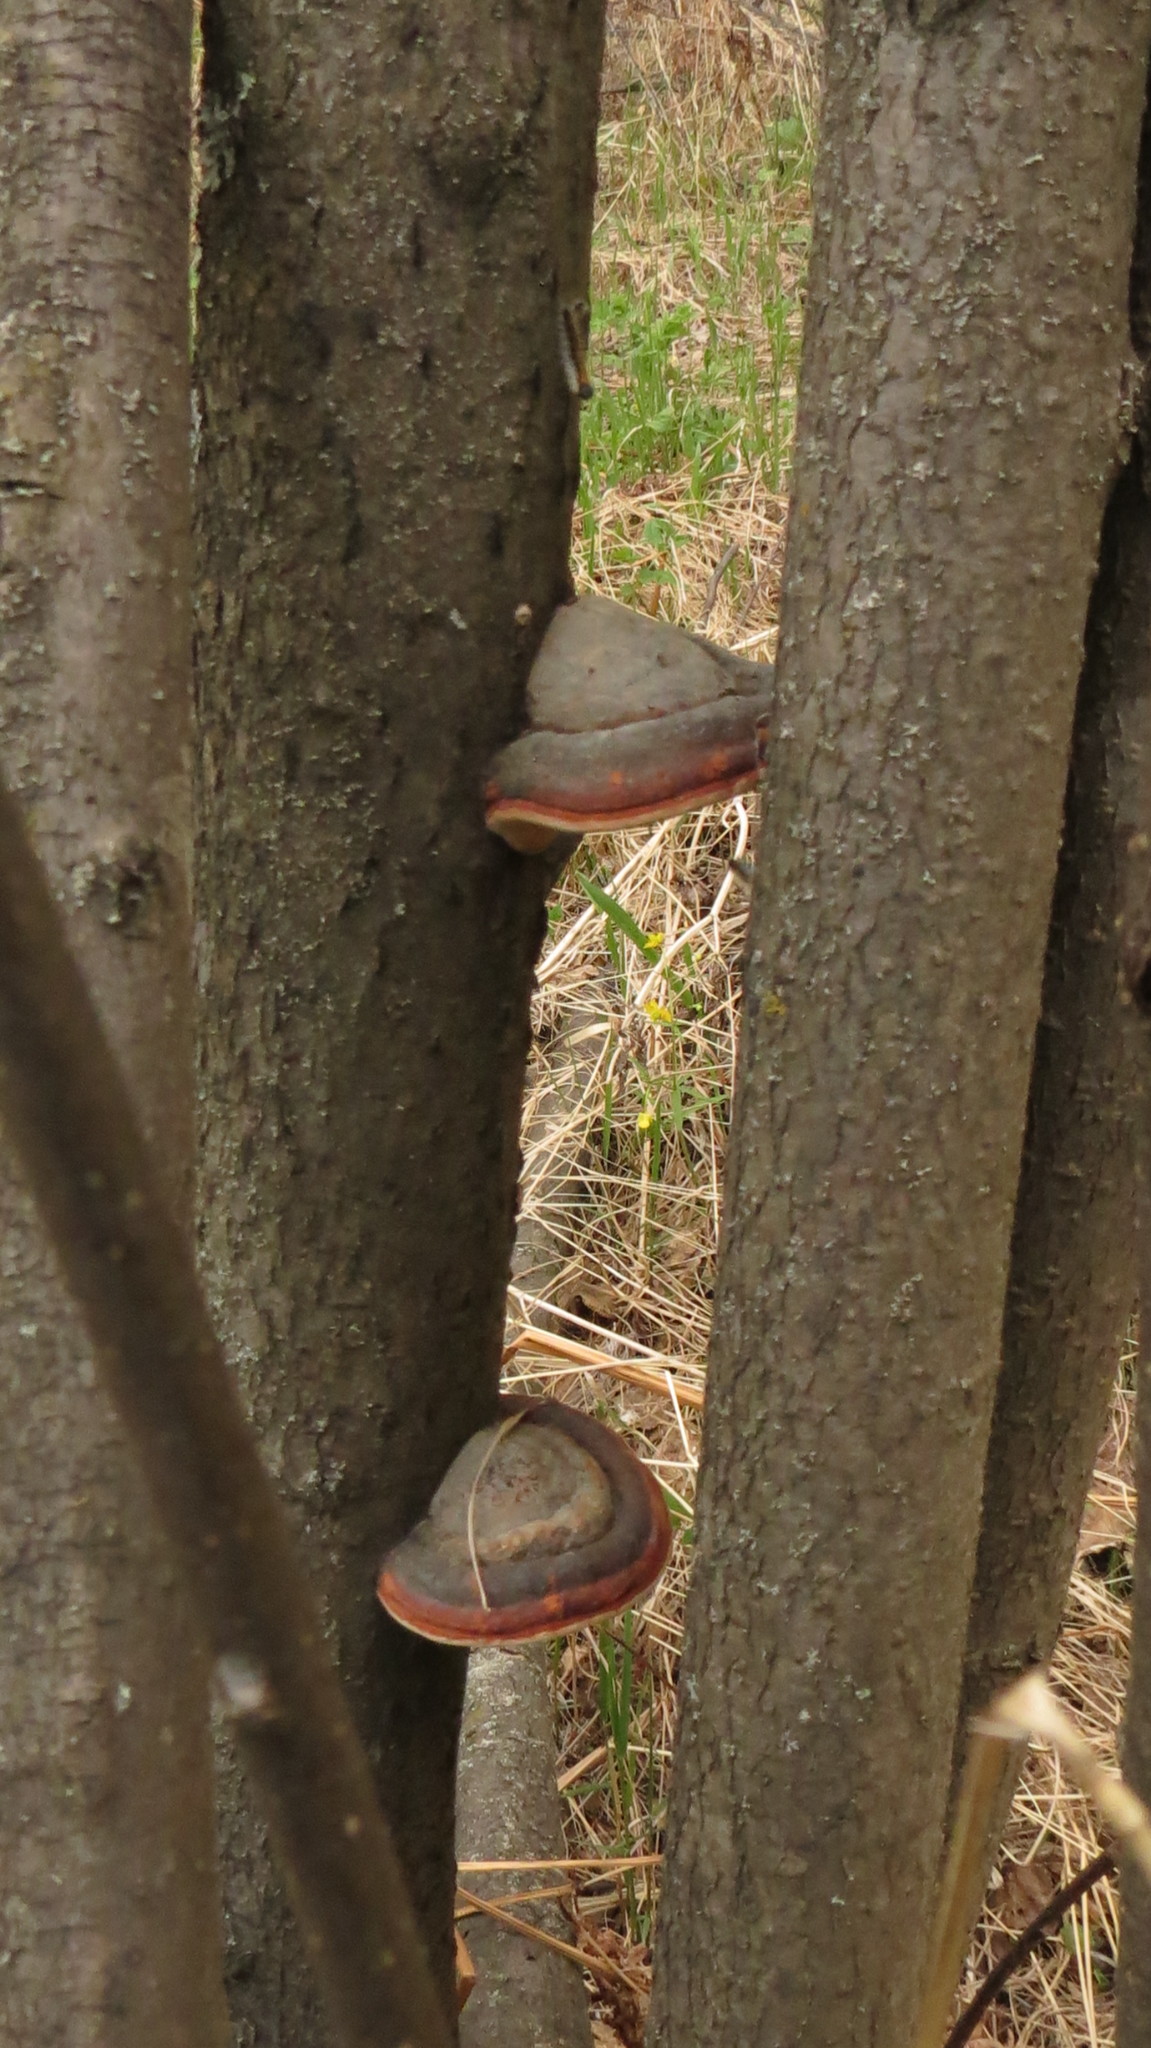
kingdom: Fungi
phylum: Basidiomycota
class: Agaricomycetes
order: Polyporales
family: Fomitopsidaceae
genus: Fomitopsis
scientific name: Fomitopsis pinicola
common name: Red-belted bracket
